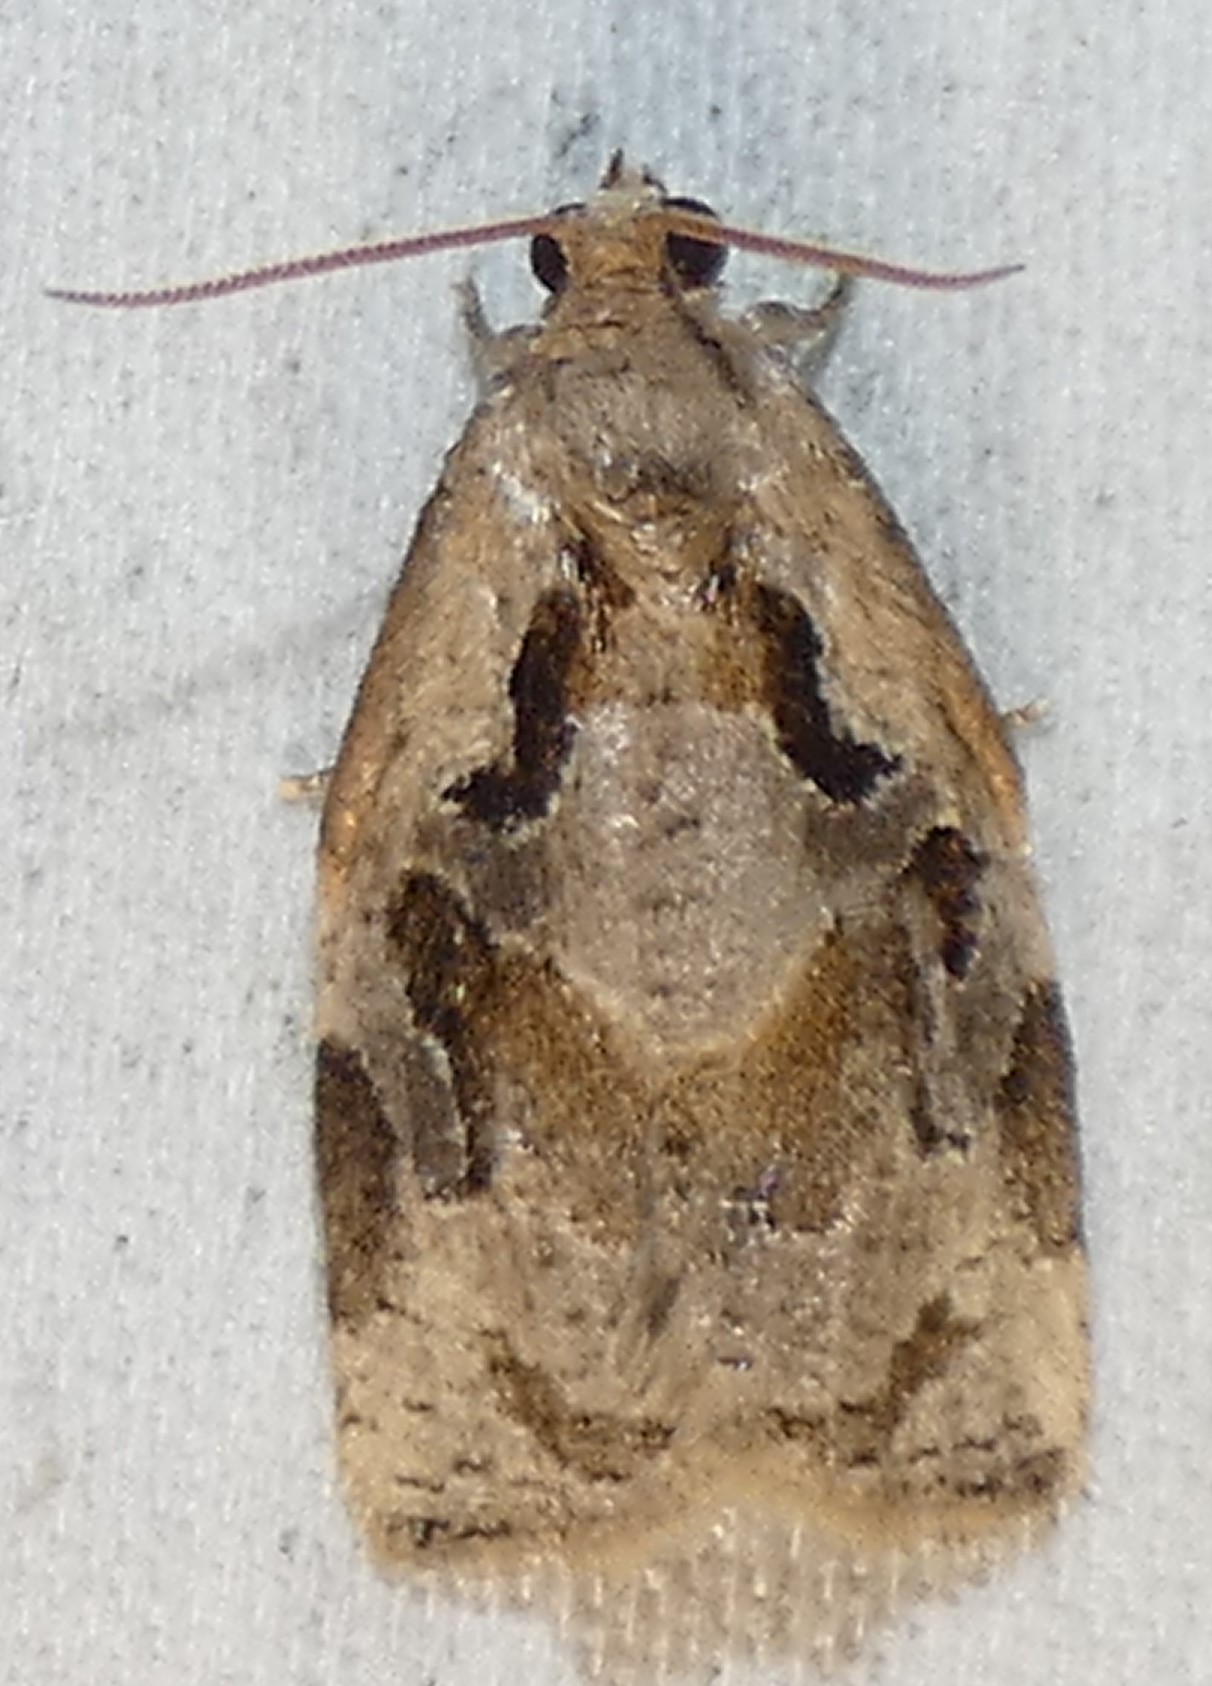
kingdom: Animalia
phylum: Arthropoda
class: Insecta
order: Lepidoptera
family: Tortricidae
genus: Archips
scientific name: Archips grisea
